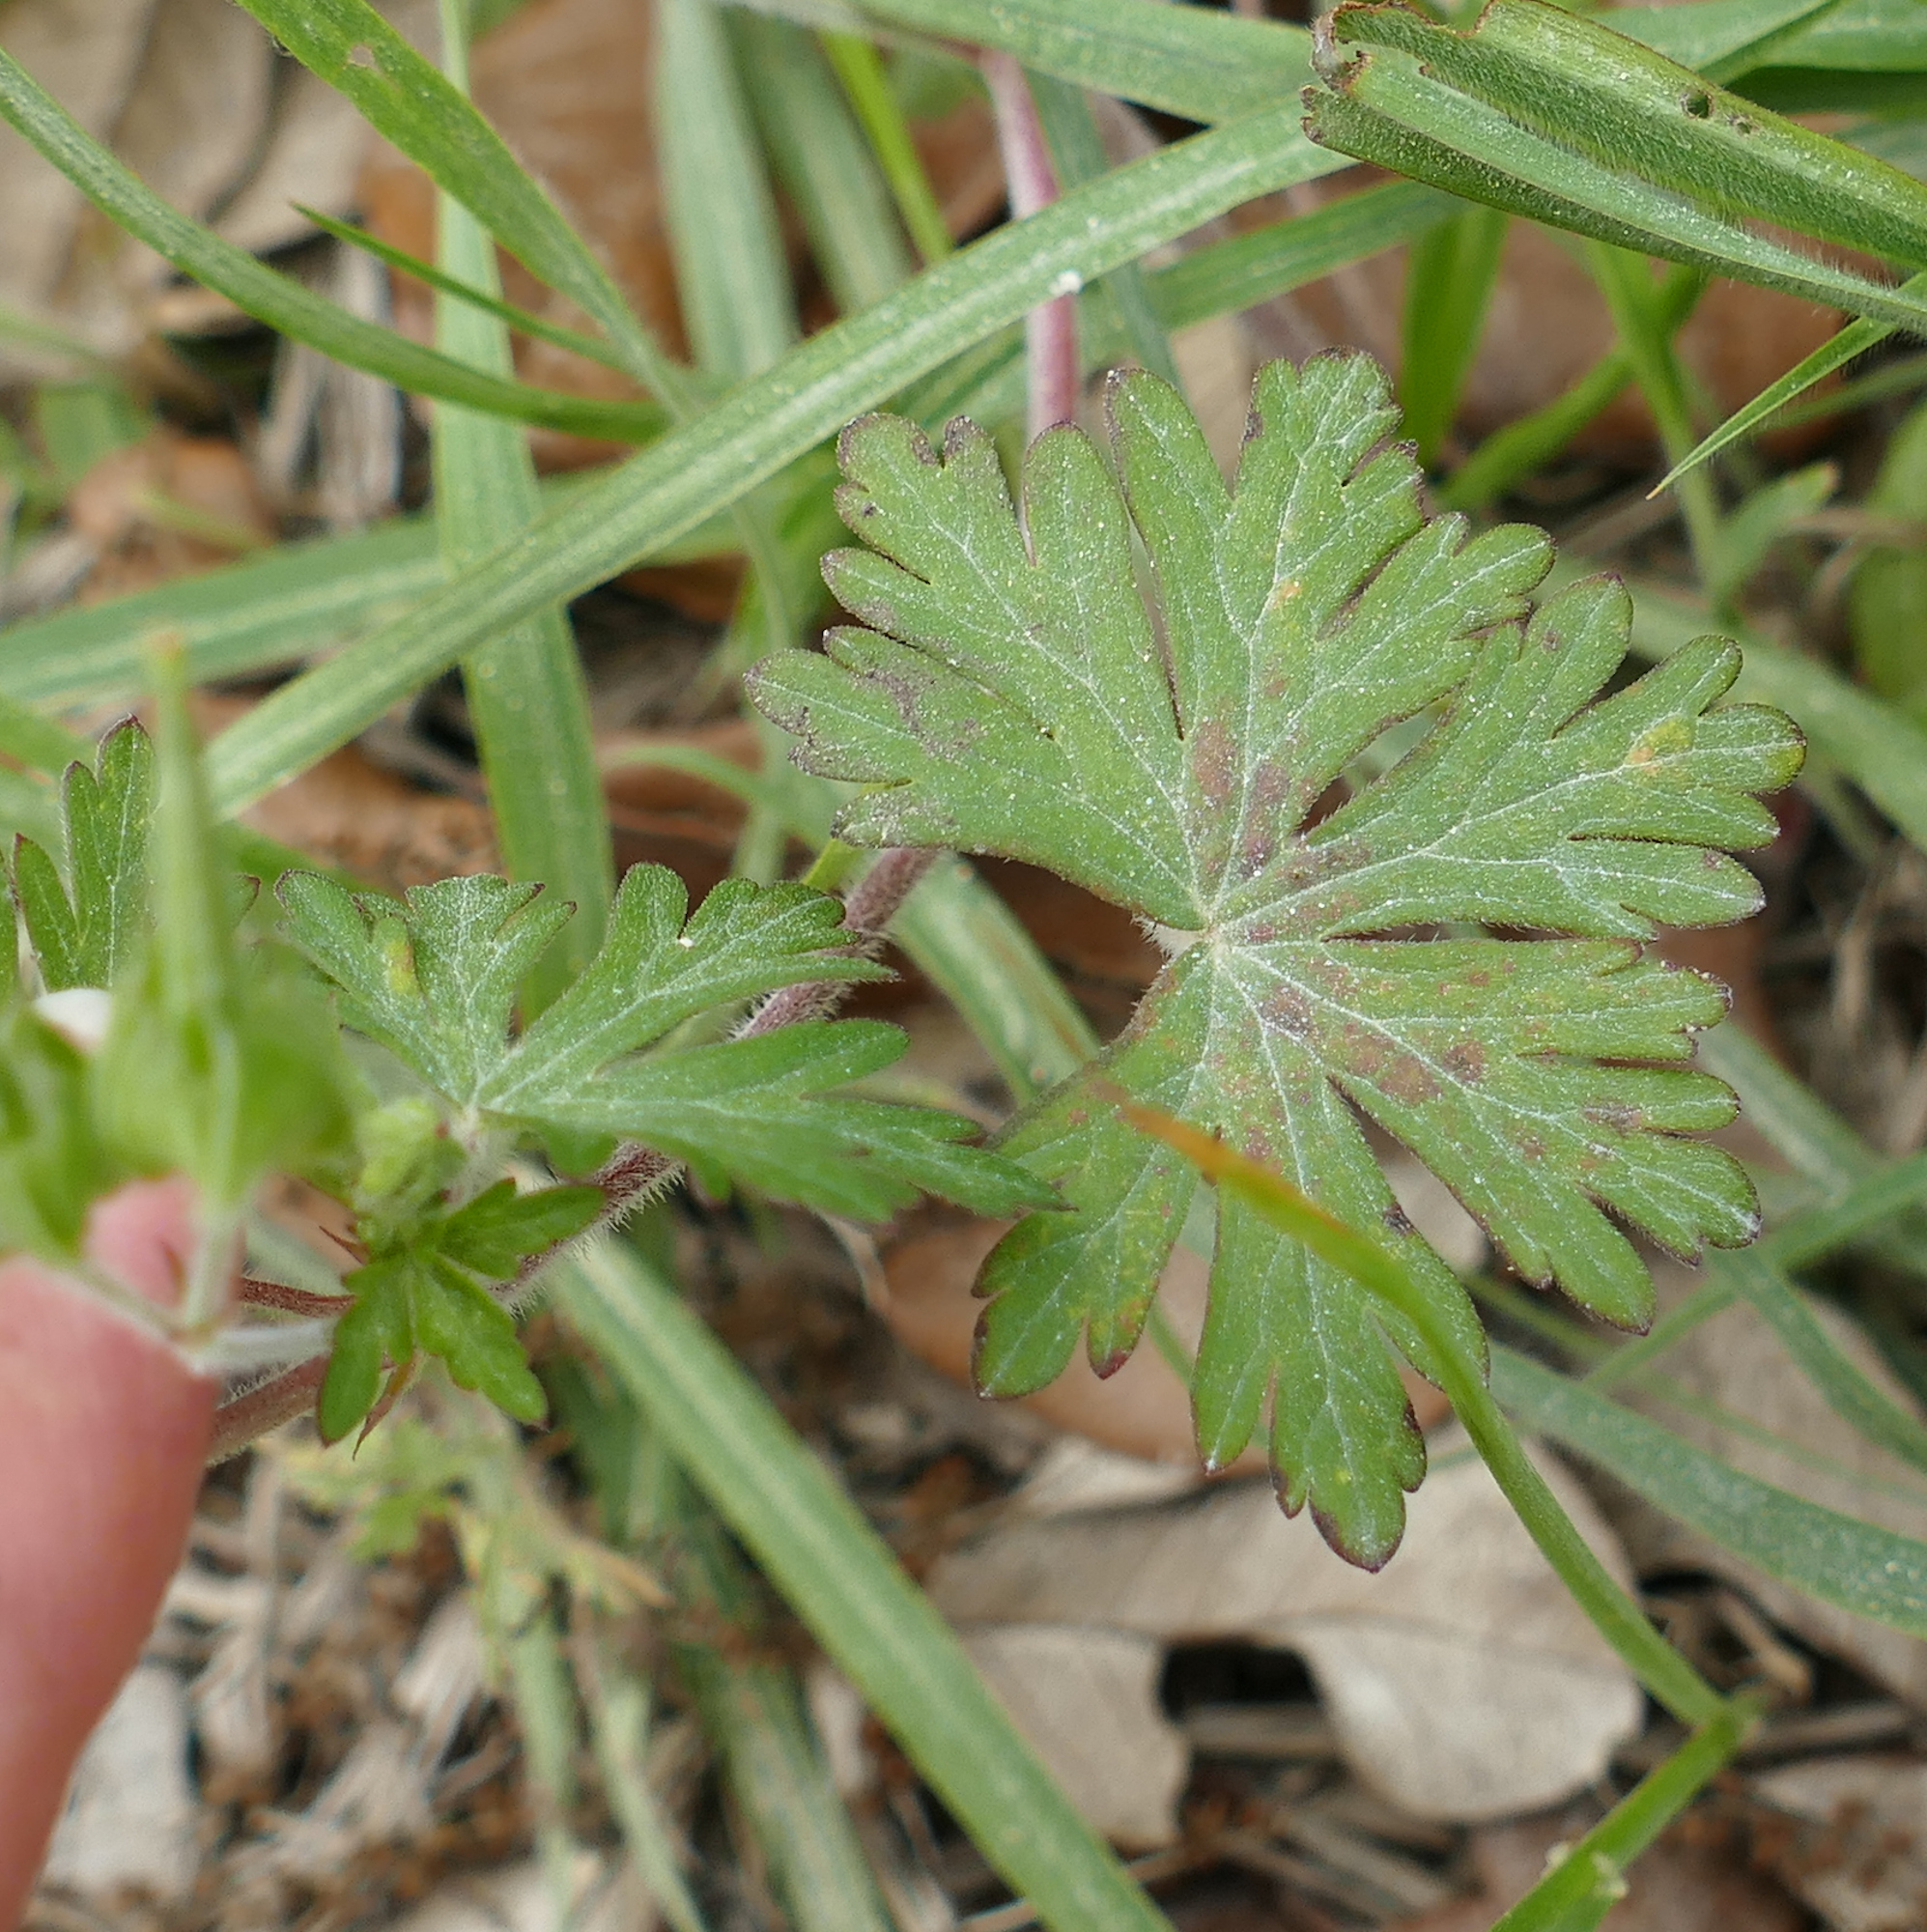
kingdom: Plantae
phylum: Tracheophyta
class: Magnoliopsida
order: Geraniales
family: Geraniaceae
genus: Geranium
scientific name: Geranium carolinianum
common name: Carolina crane's-bill
